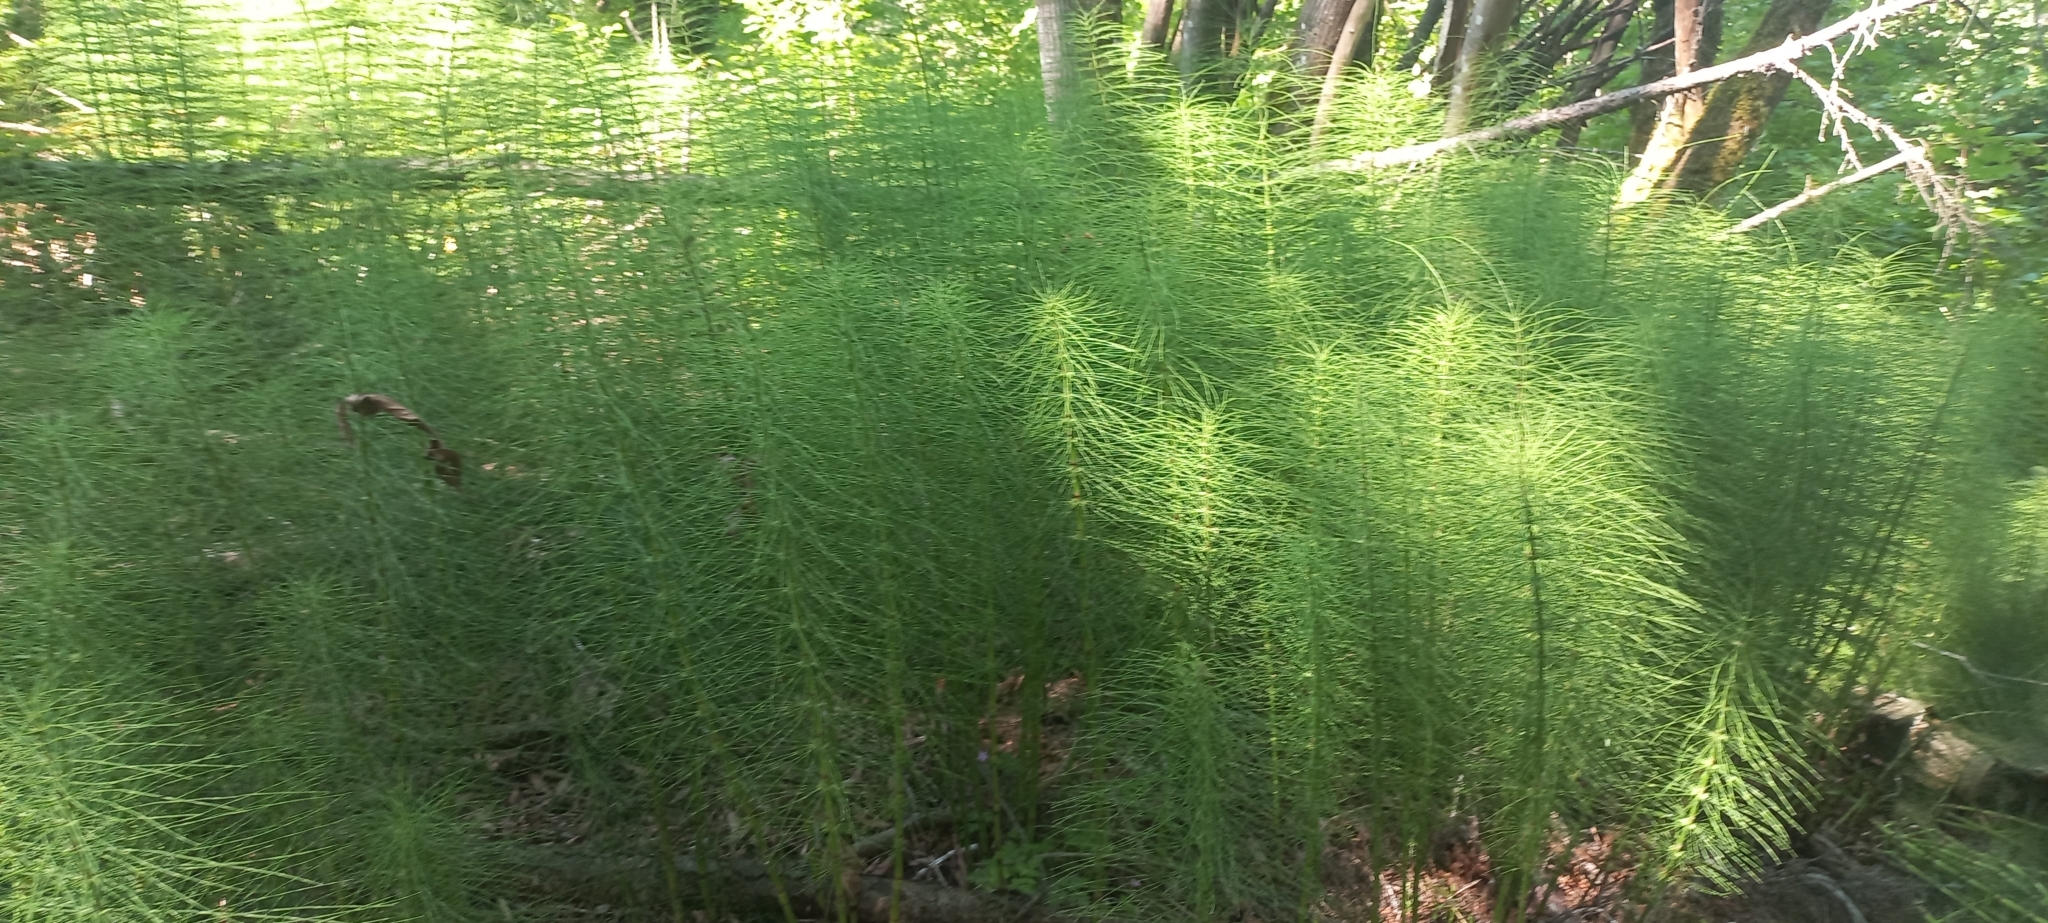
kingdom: Plantae
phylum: Tracheophyta
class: Polypodiopsida
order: Equisetales
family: Equisetaceae
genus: Equisetum
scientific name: Equisetum braunii
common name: Braun's horsetail
